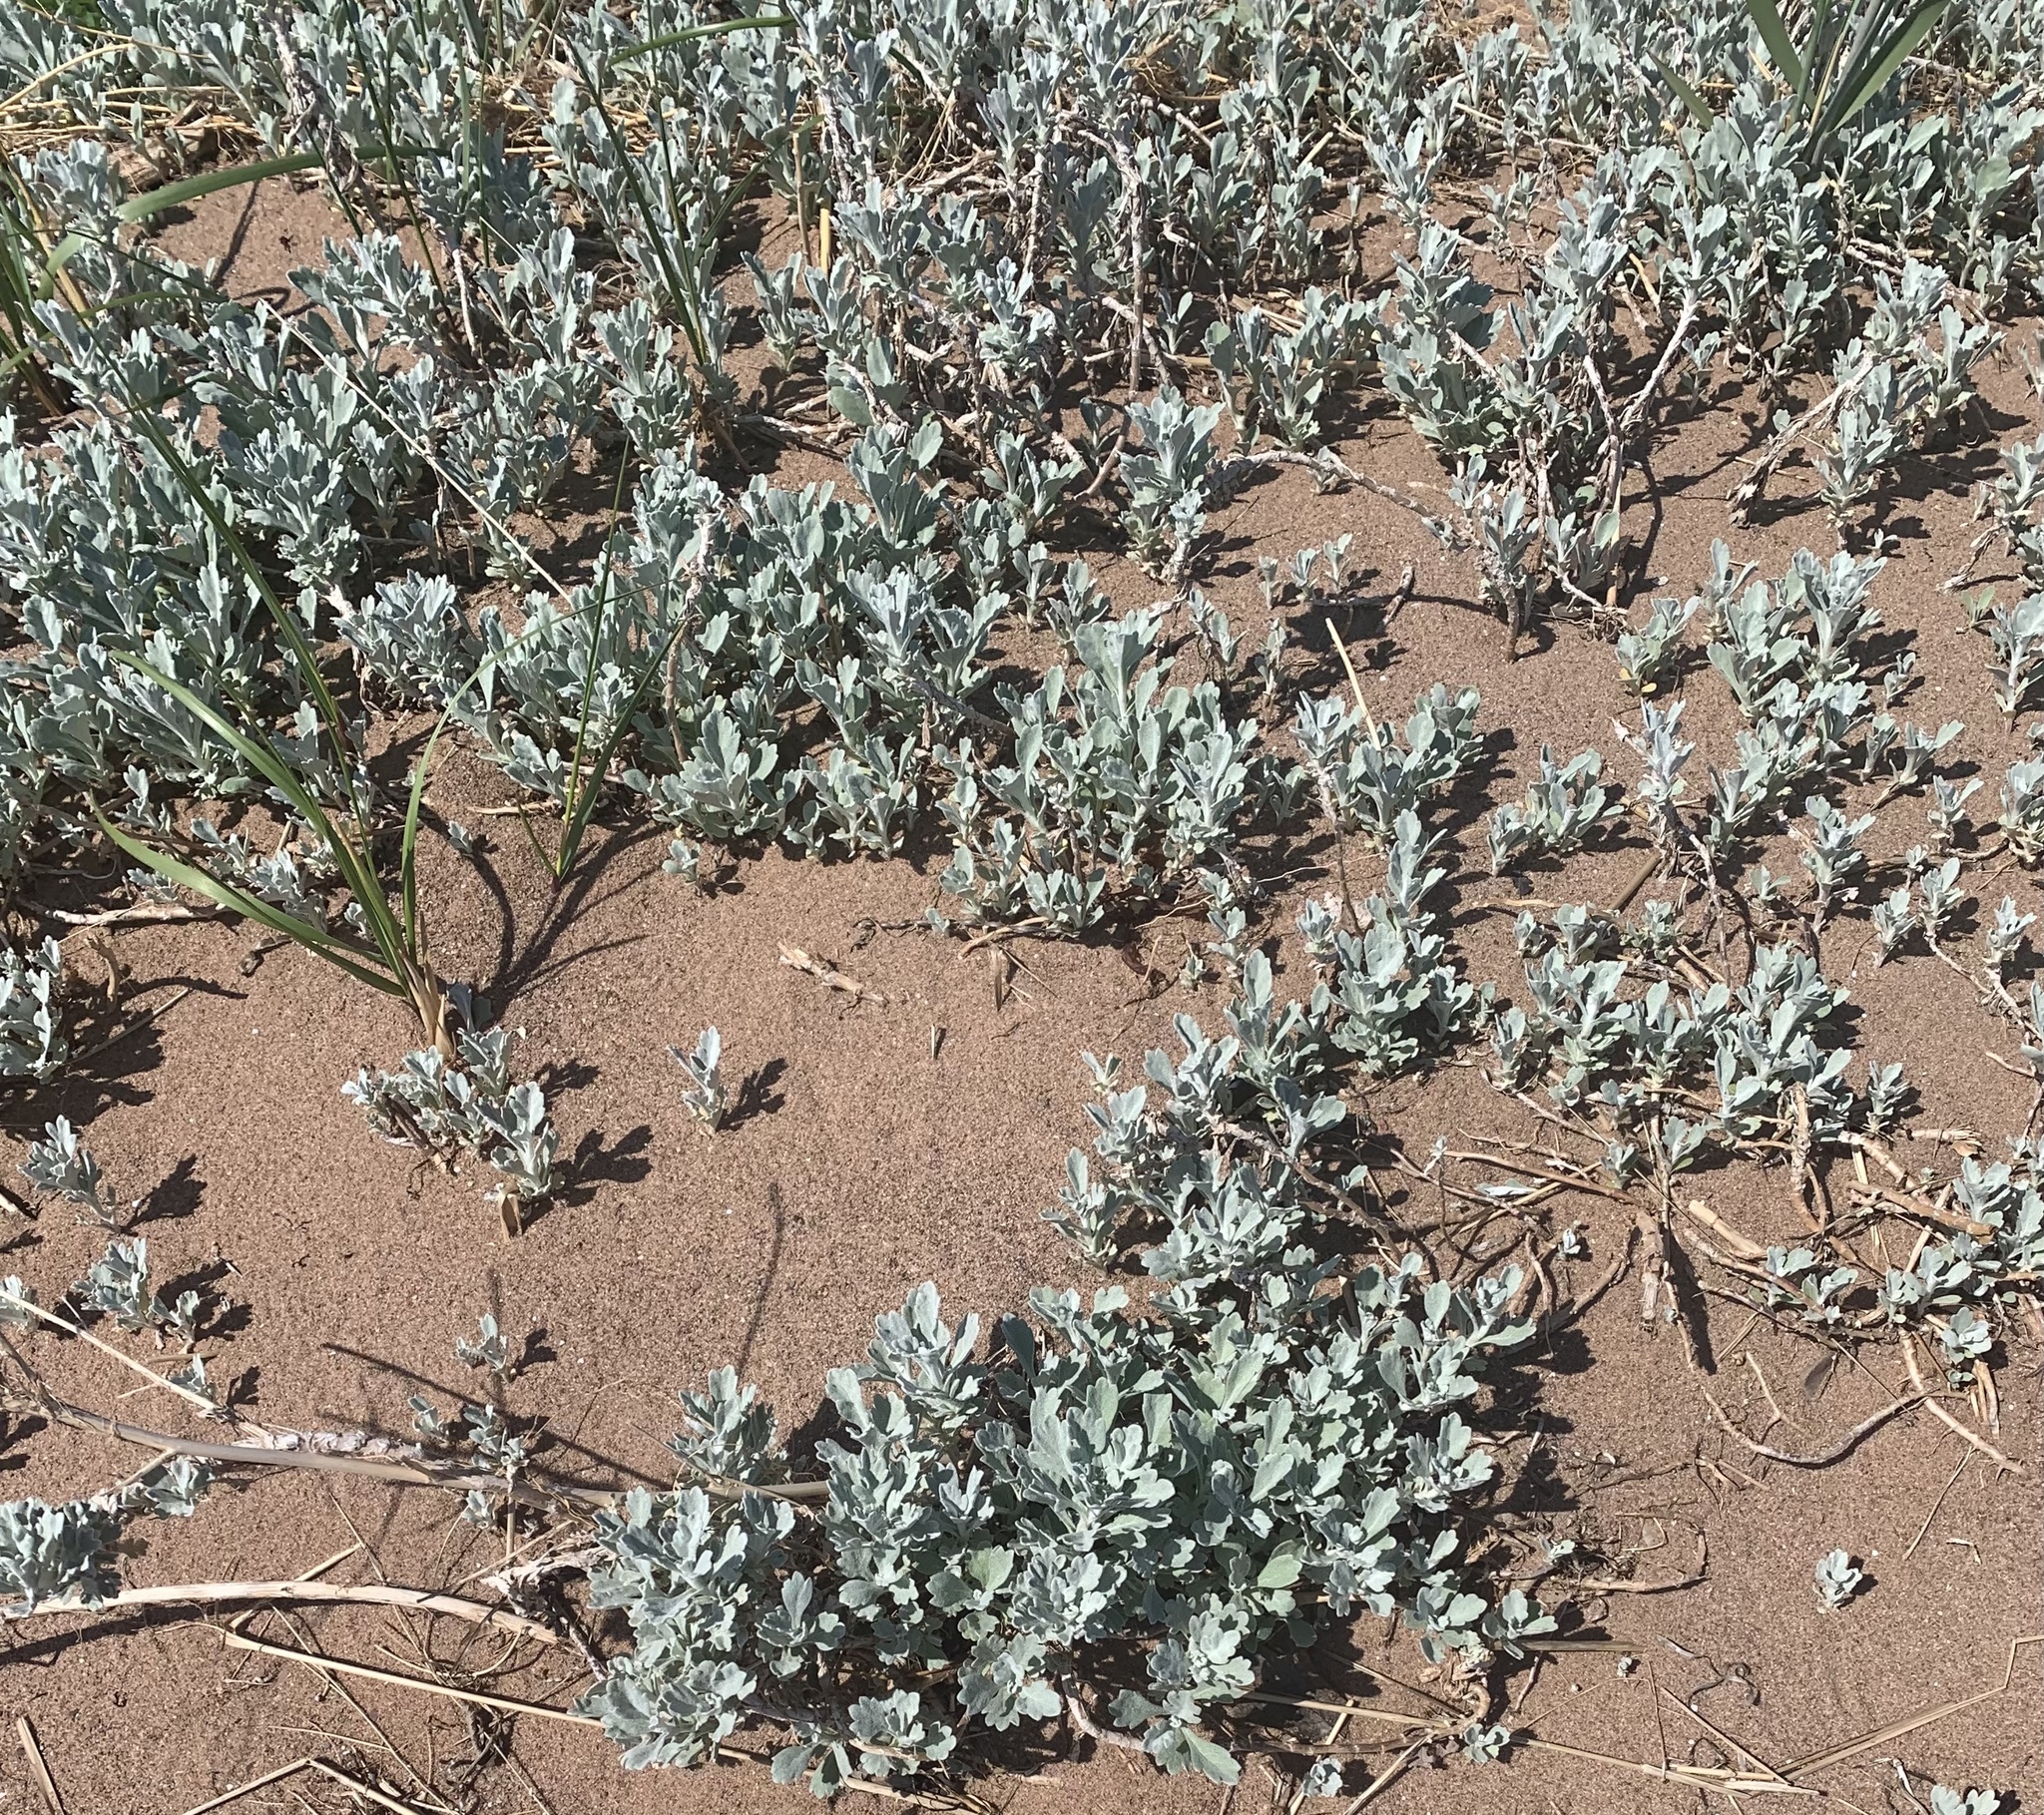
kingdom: Plantae
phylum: Tracheophyta
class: Magnoliopsida
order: Asterales
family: Asteraceae
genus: Artemisia
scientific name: Artemisia stelleriana
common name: Beach wormwood
